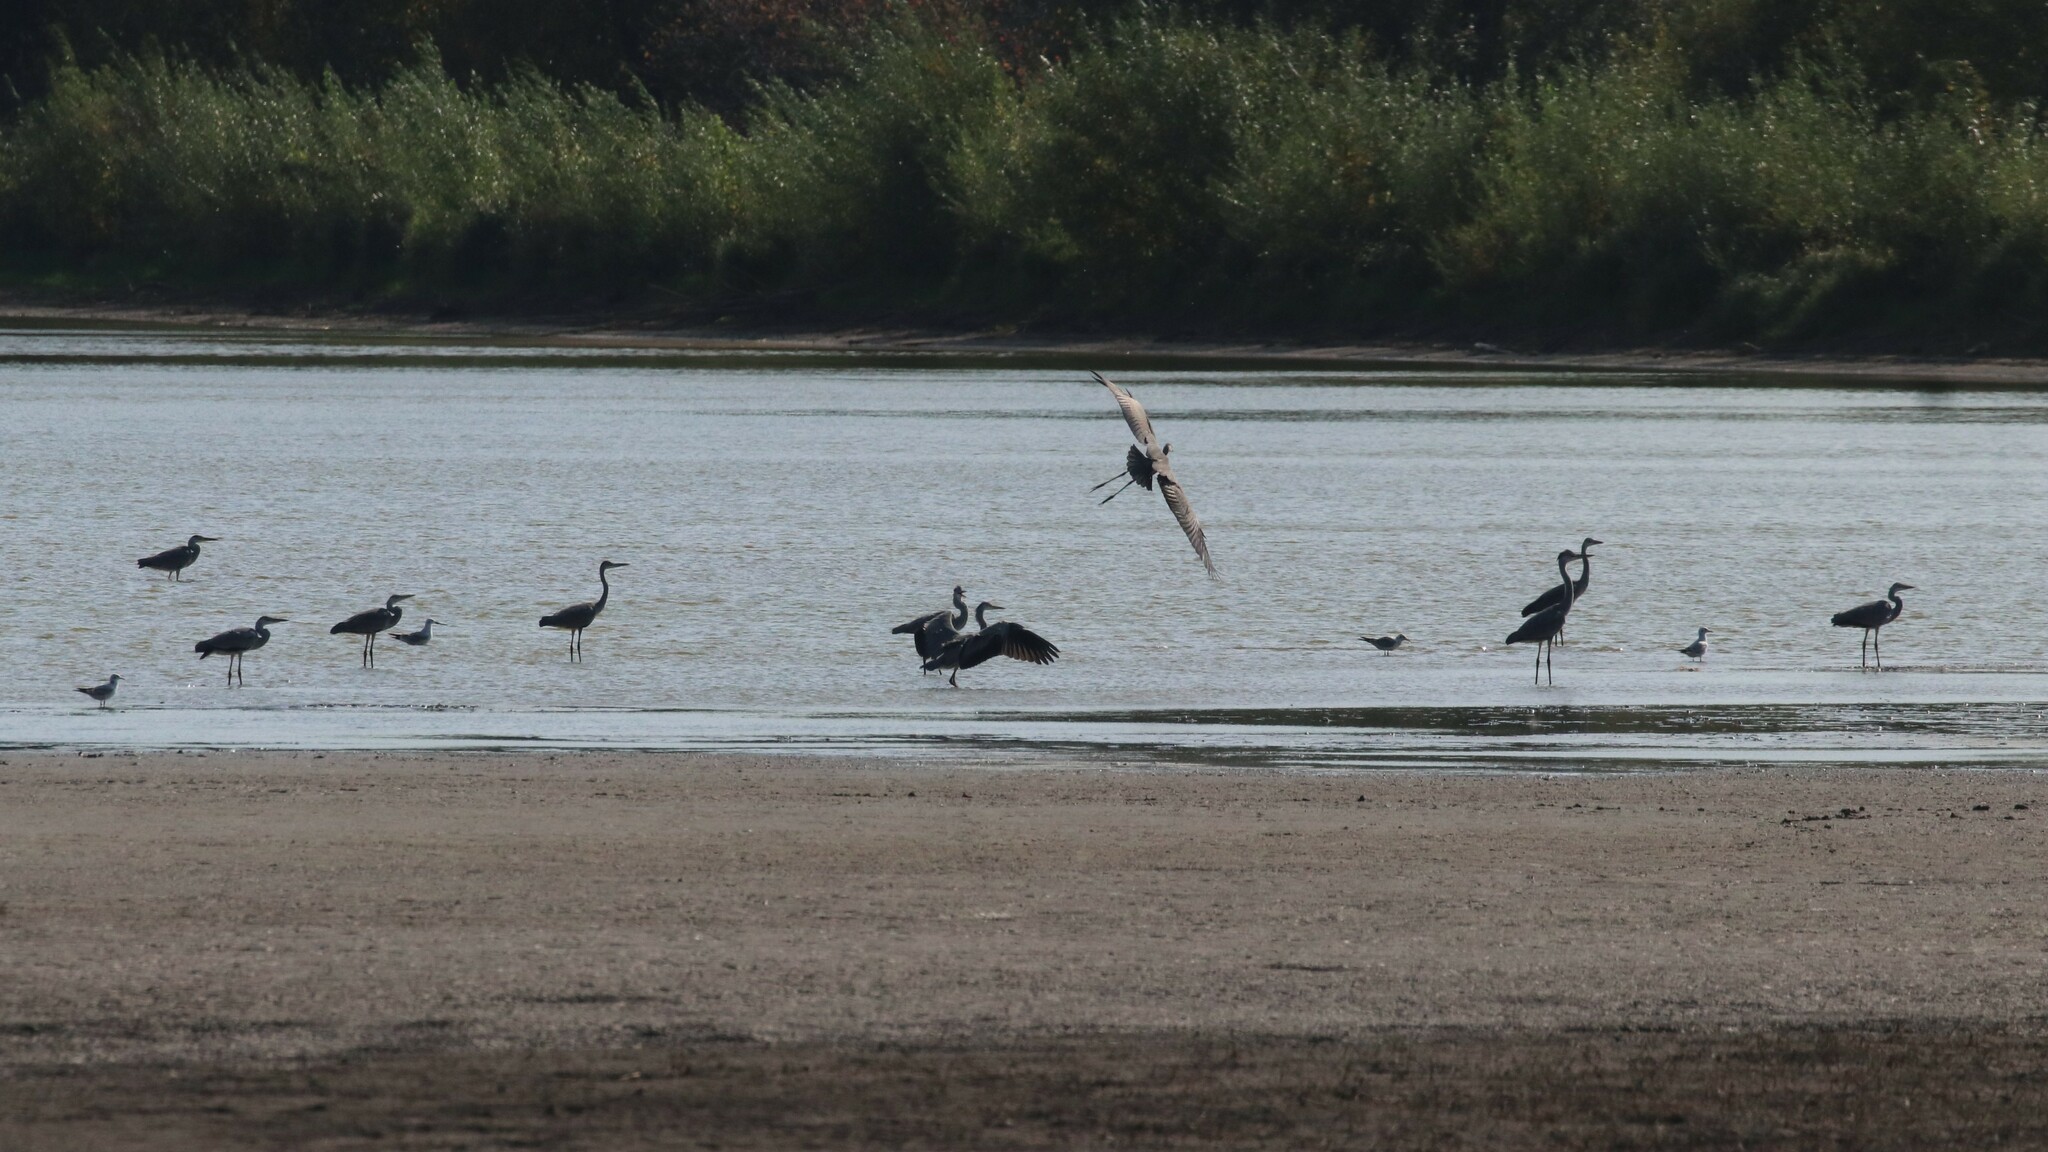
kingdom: Animalia
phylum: Chordata
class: Aves
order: Pelecaniformes
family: Ardeidae
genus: Ardea
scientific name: Ardea cinerea
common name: Grey heron
